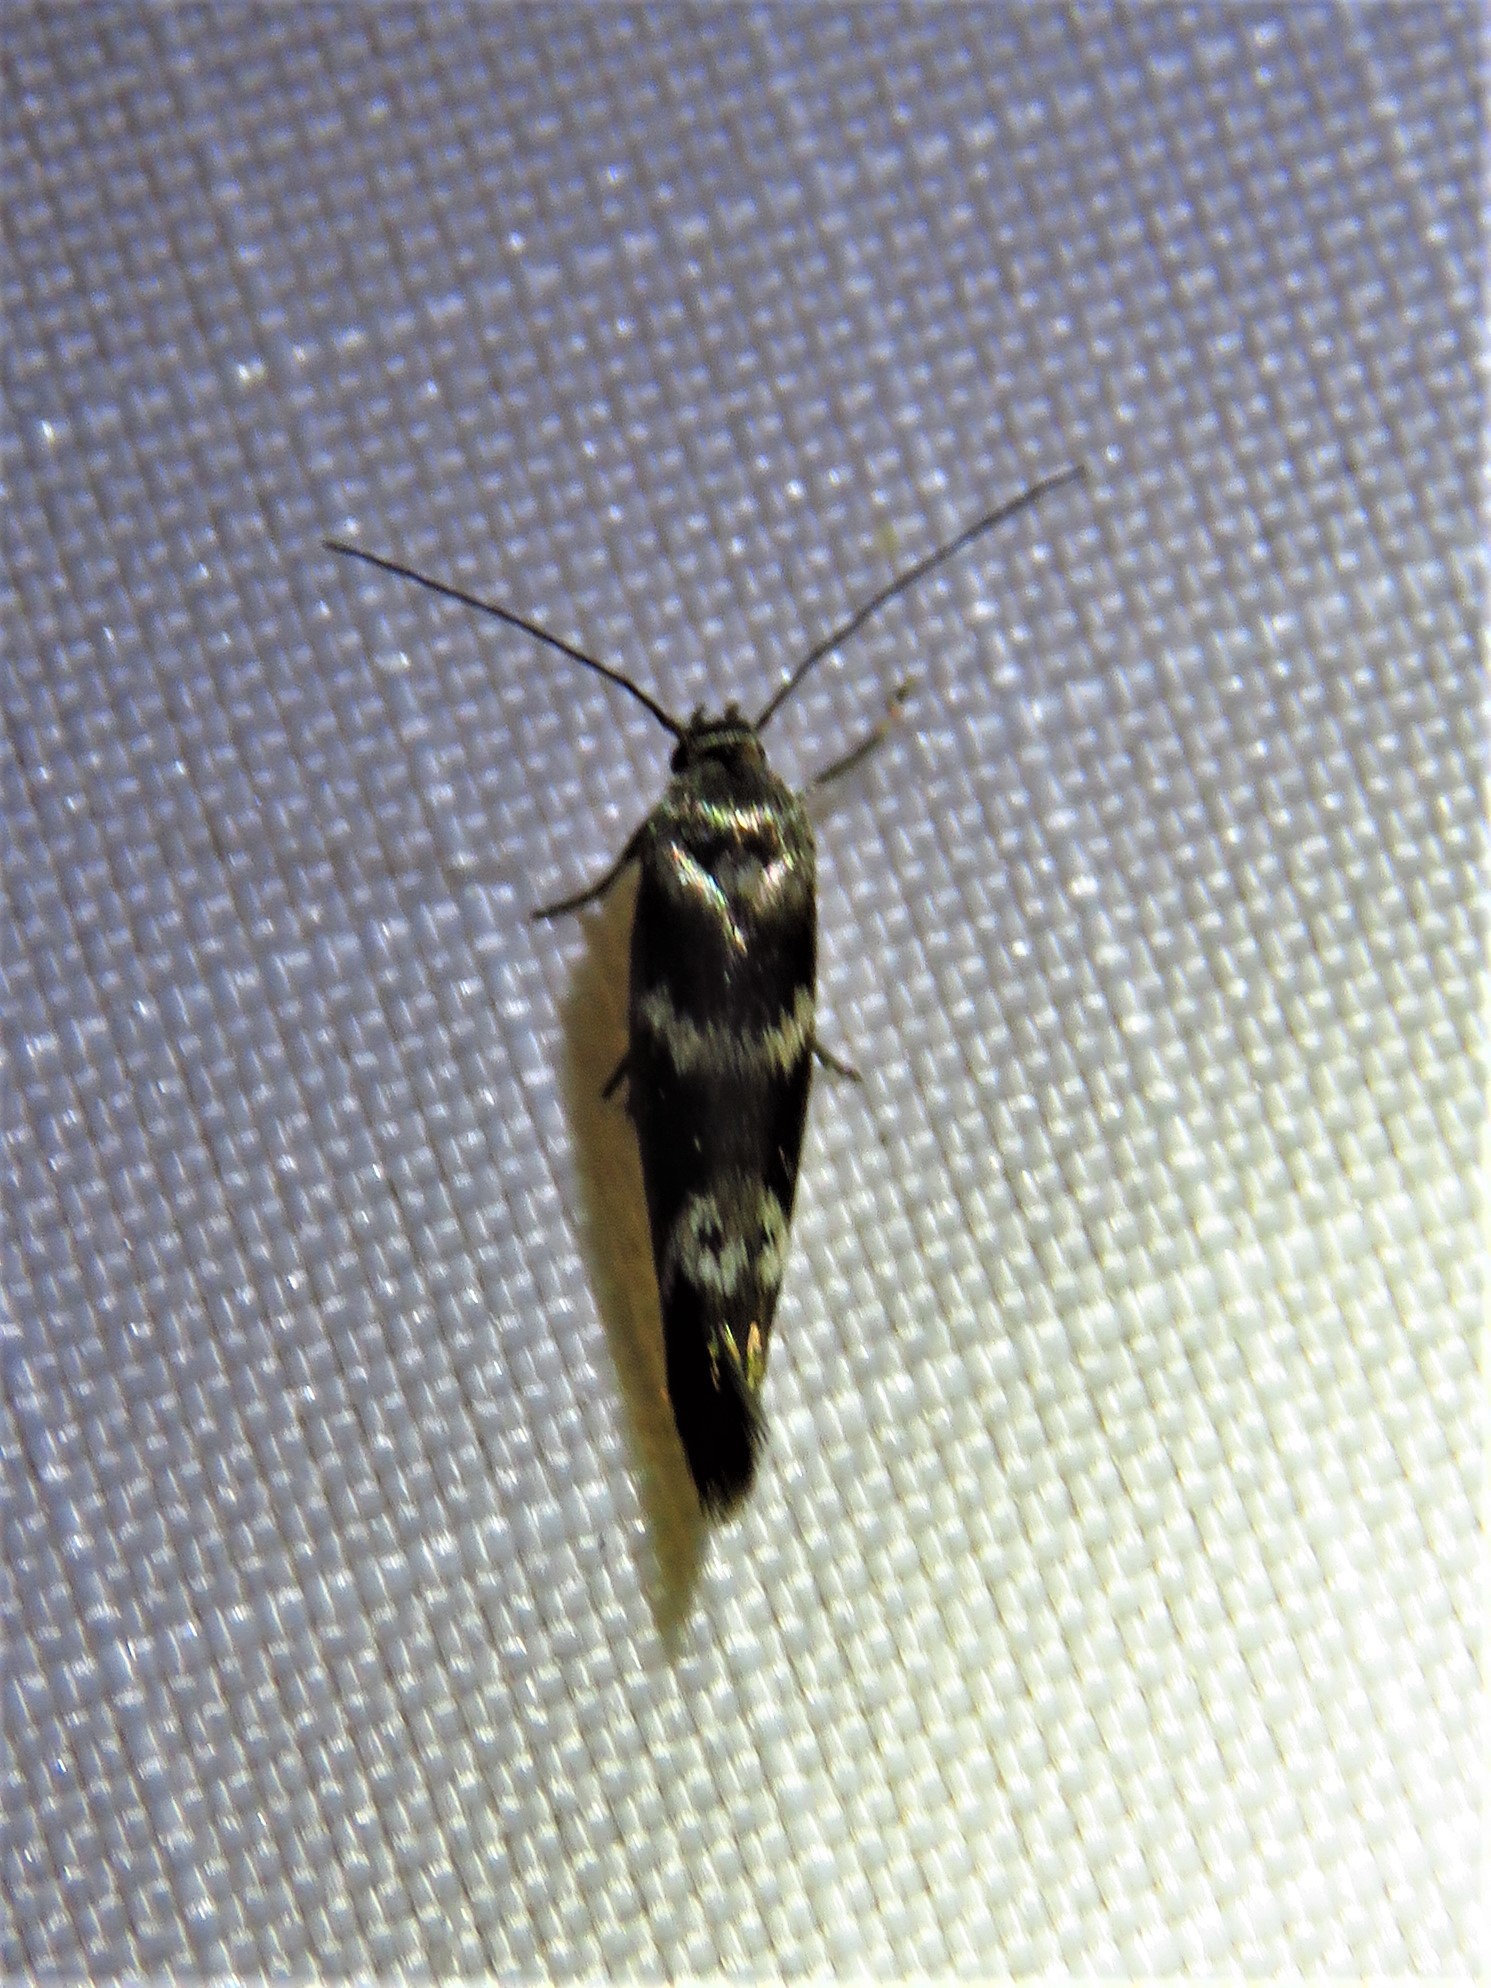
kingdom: Animalia
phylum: Arthropoda
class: Insecta
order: Lepidoptera
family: Scythrididae
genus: Scythris
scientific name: Scythris trivinctella
